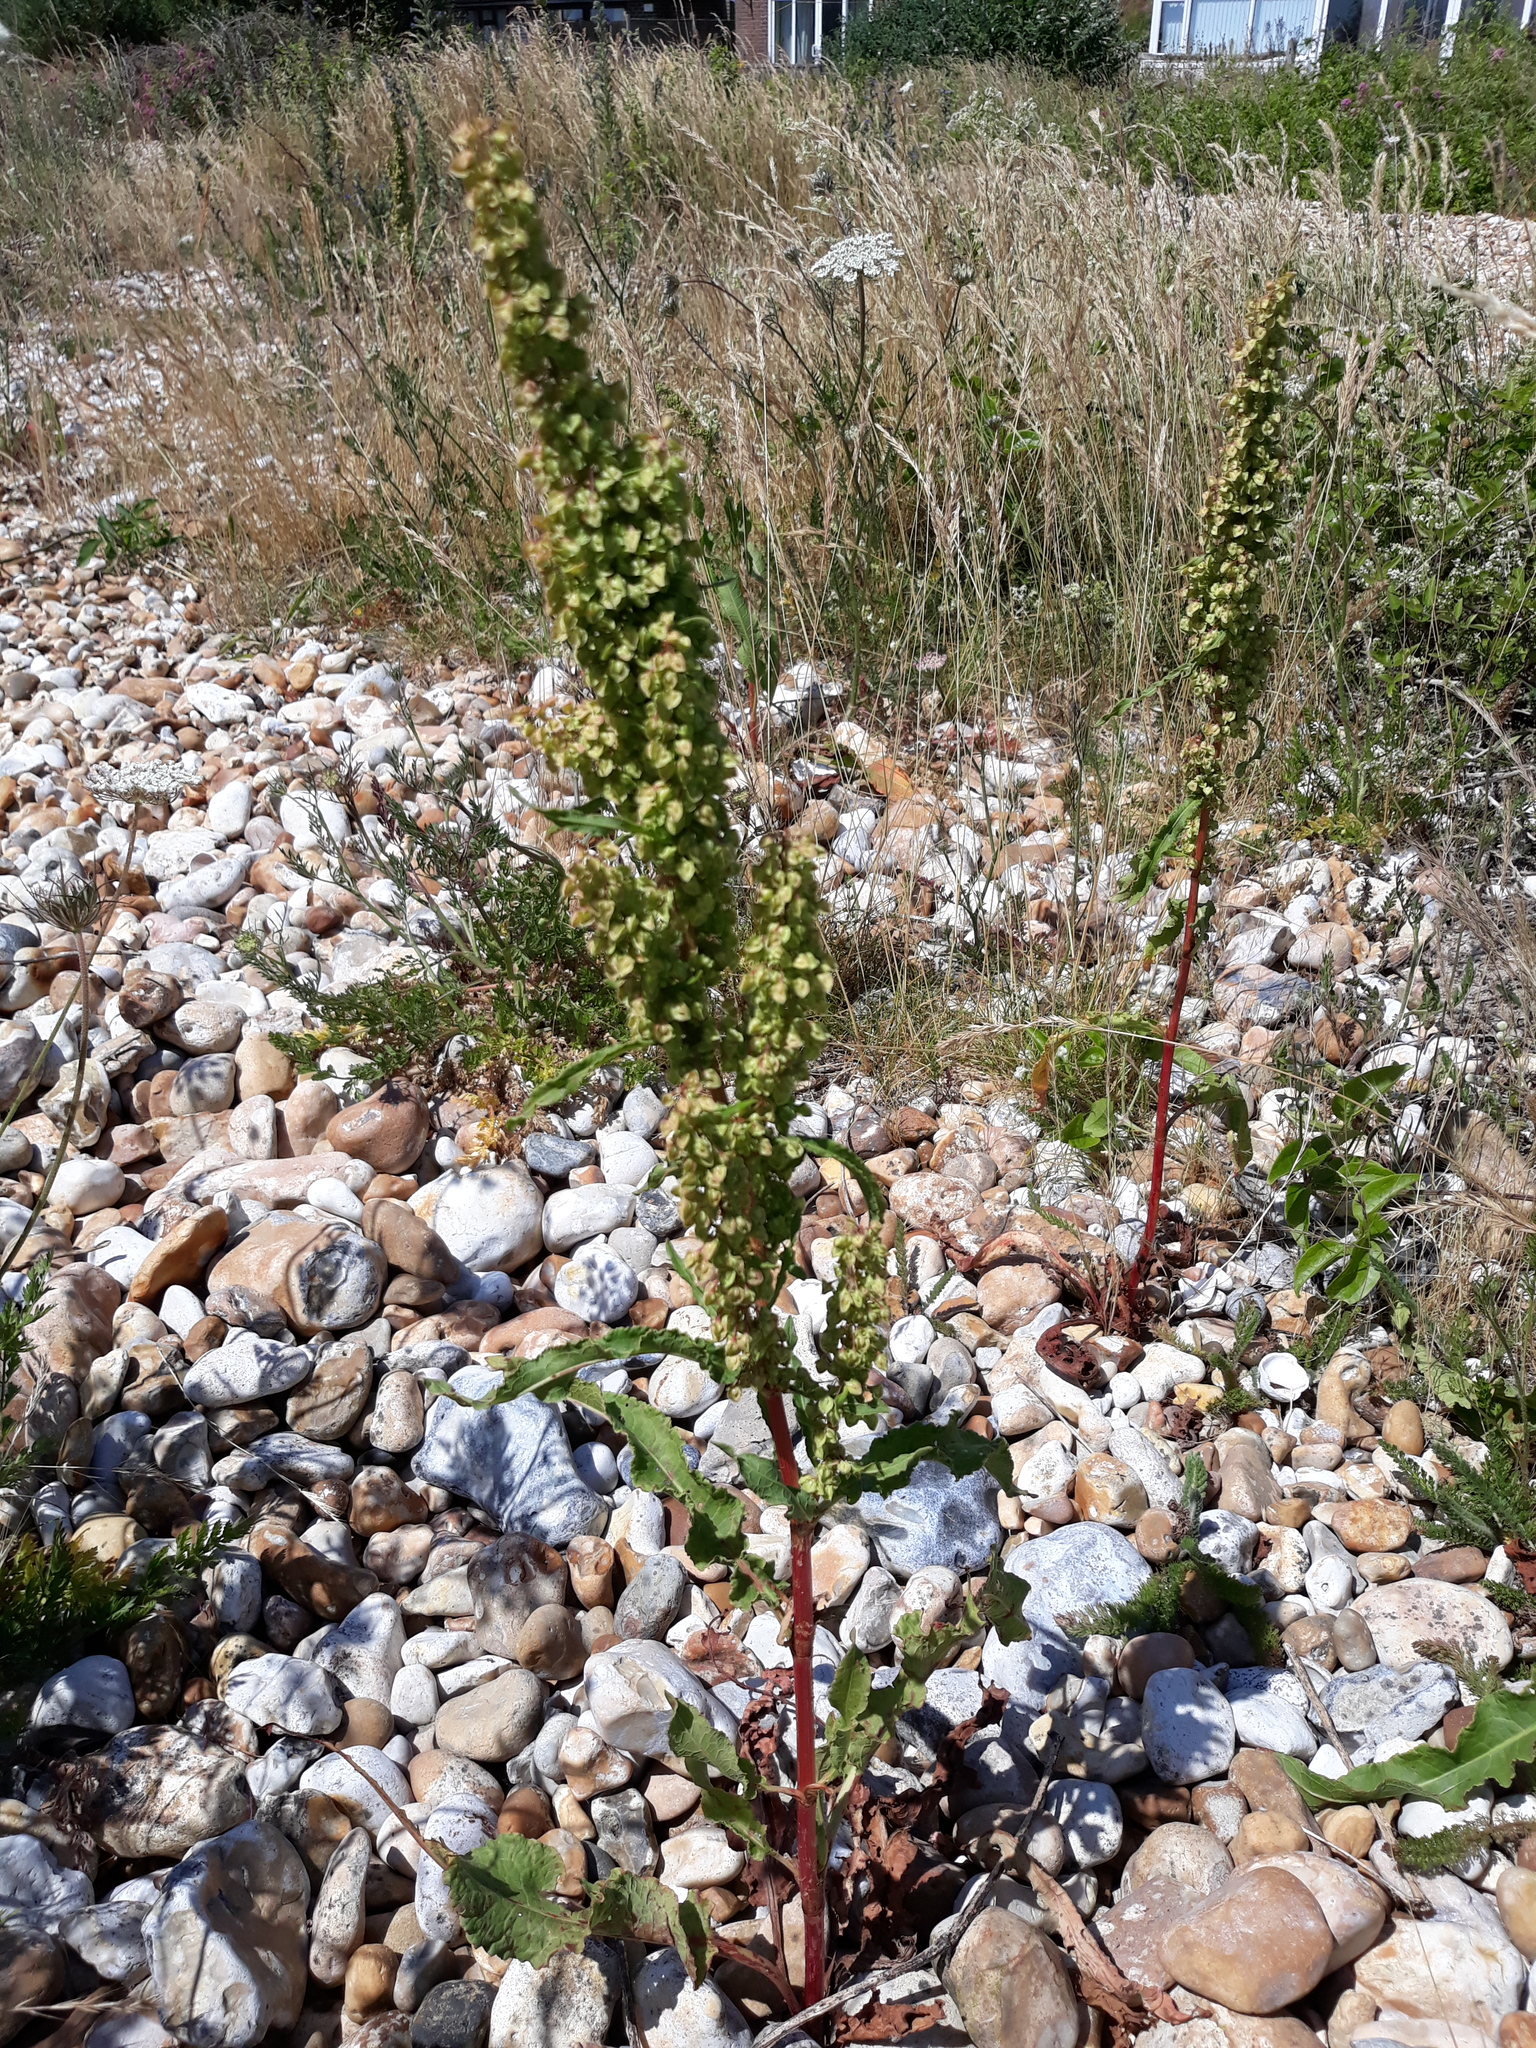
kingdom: Plantae
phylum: Tracheophyta
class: Magnoliopsida
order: Caryophyllales
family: Polygonaceae
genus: Rumex
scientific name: Rumex crispus
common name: Curled dock
